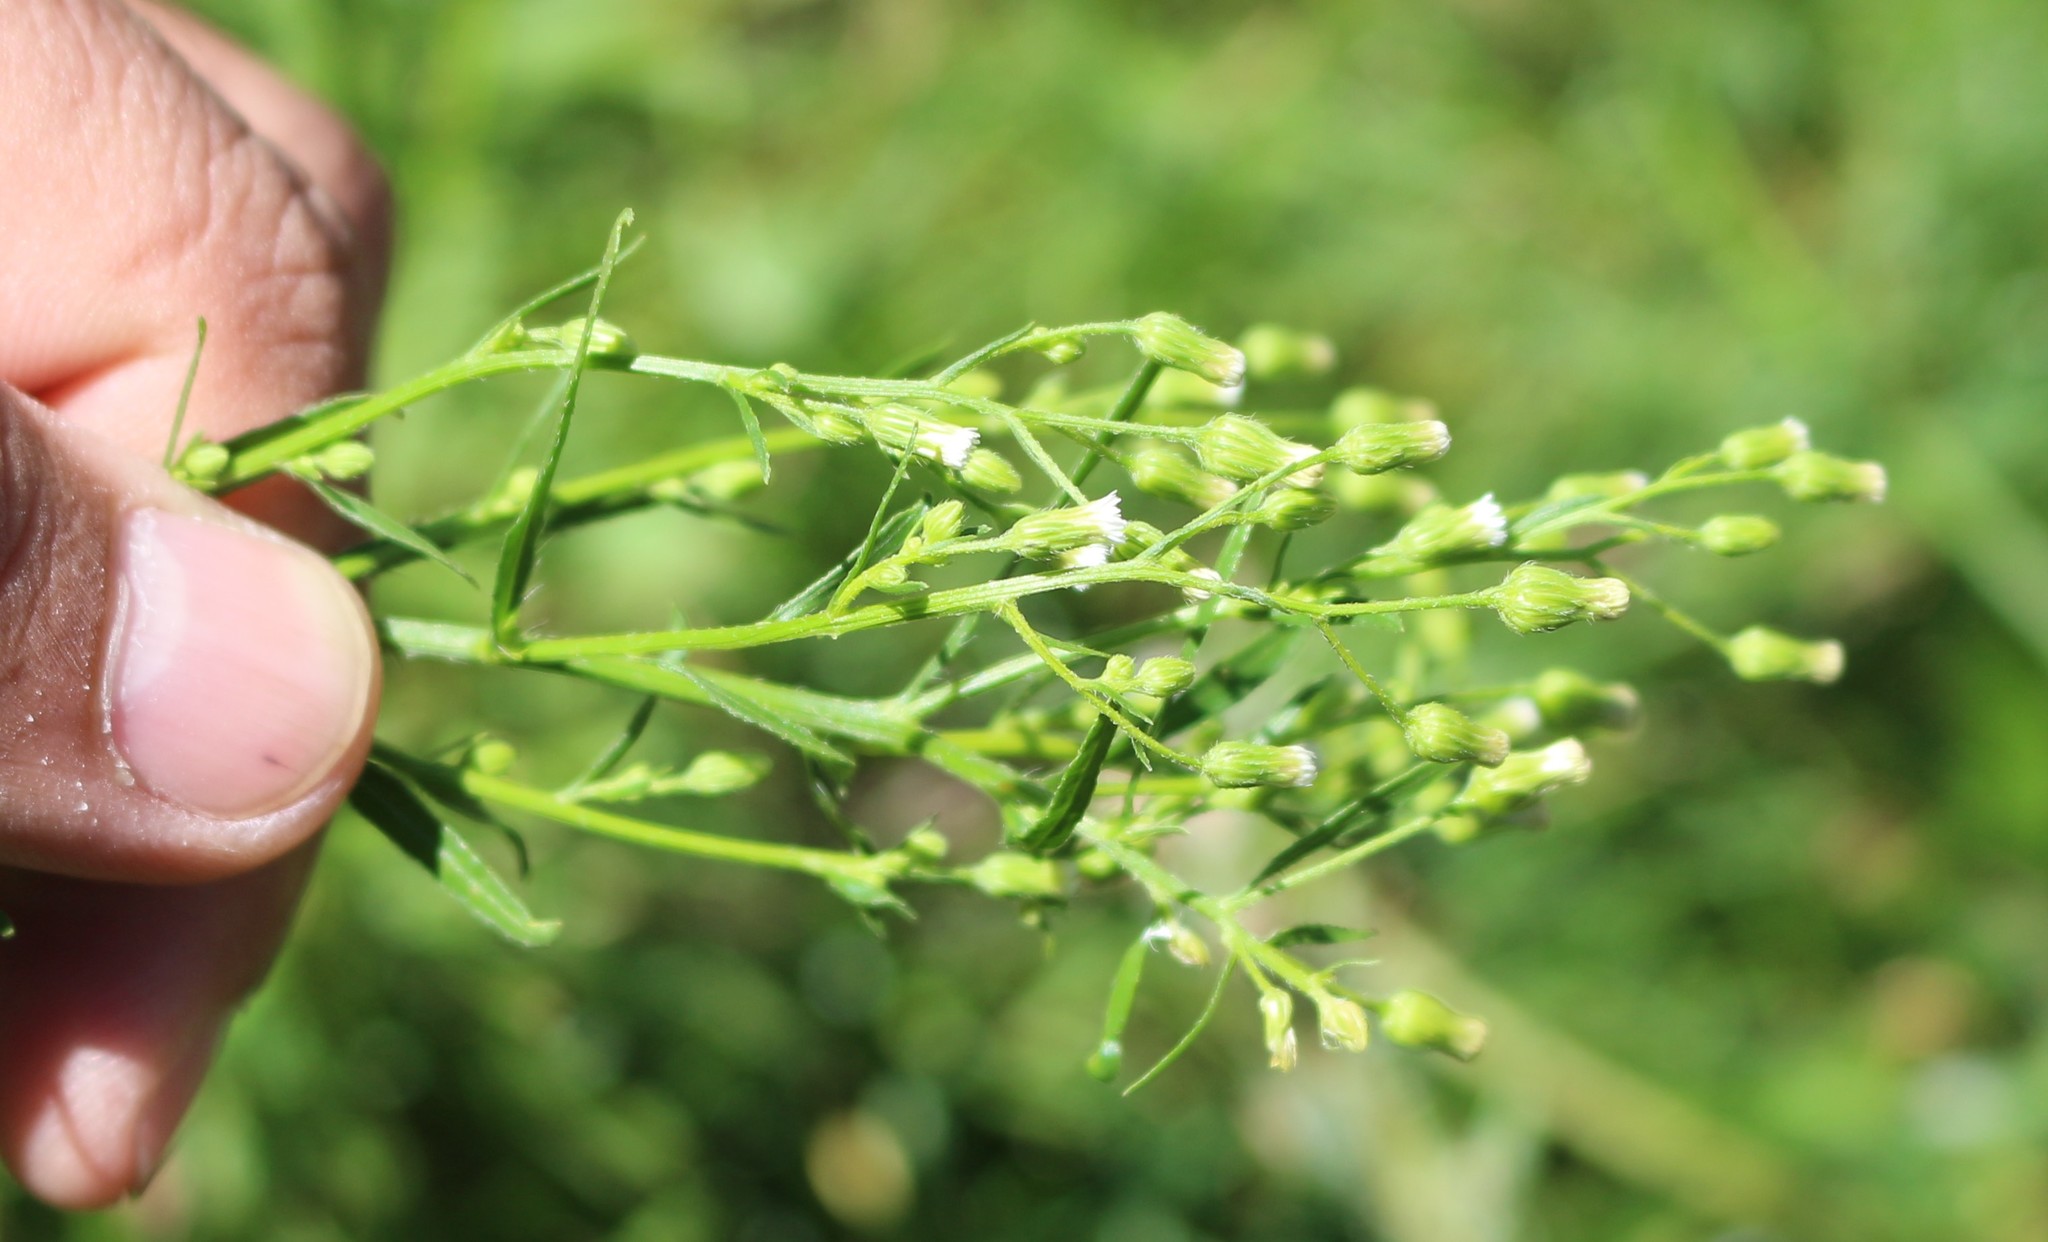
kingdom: Plantae
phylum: Tracheophyta
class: Magnoliopsida
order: Asterales
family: Asteraceae
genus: Erigeron
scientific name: Erigeron canadensis
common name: Canadian fleabane
